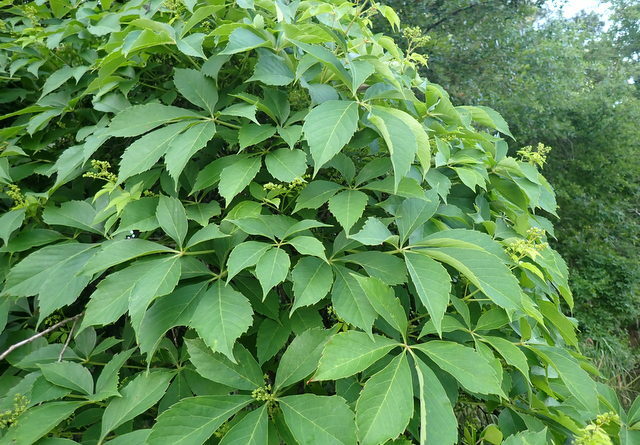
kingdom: Plantae
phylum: Tracheophyta
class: Magnoliopsida
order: Vitales
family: Vitaceae
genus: Parthenocissus
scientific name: Parthenocissus quinquefolia
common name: Virginia-creeper
